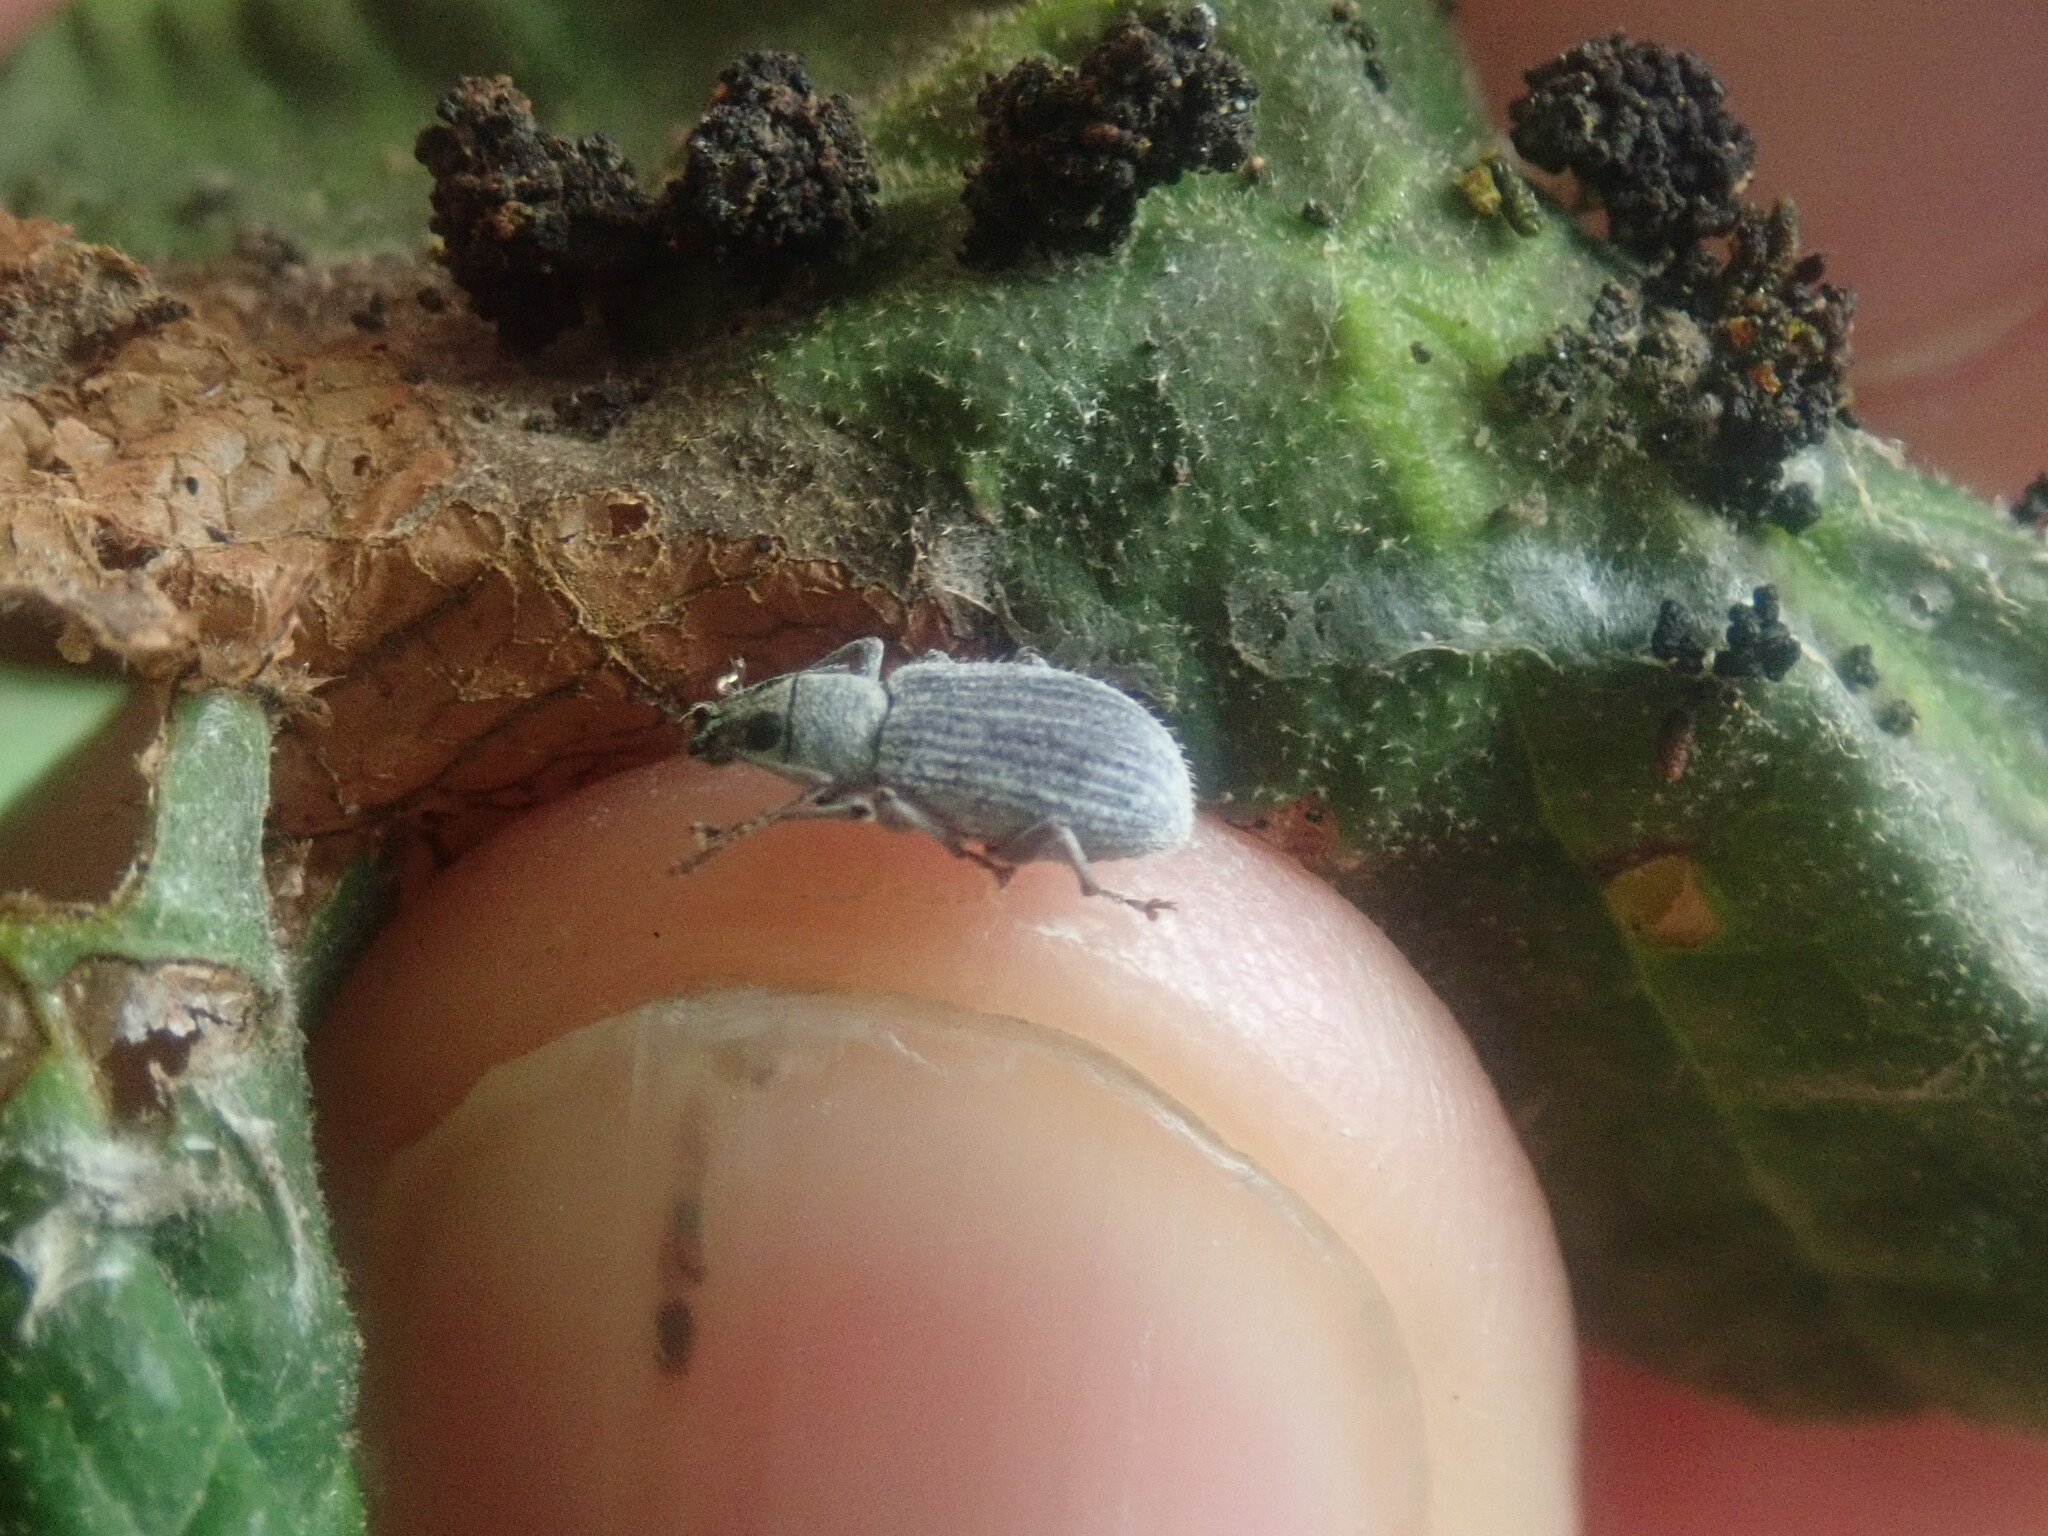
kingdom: Animalia
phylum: Arthropoda
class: Insecta
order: Coleoptera
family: Curculionidae
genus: Cyrtepistomus
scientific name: Cyrtepistomus castaneus
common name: Weevil
